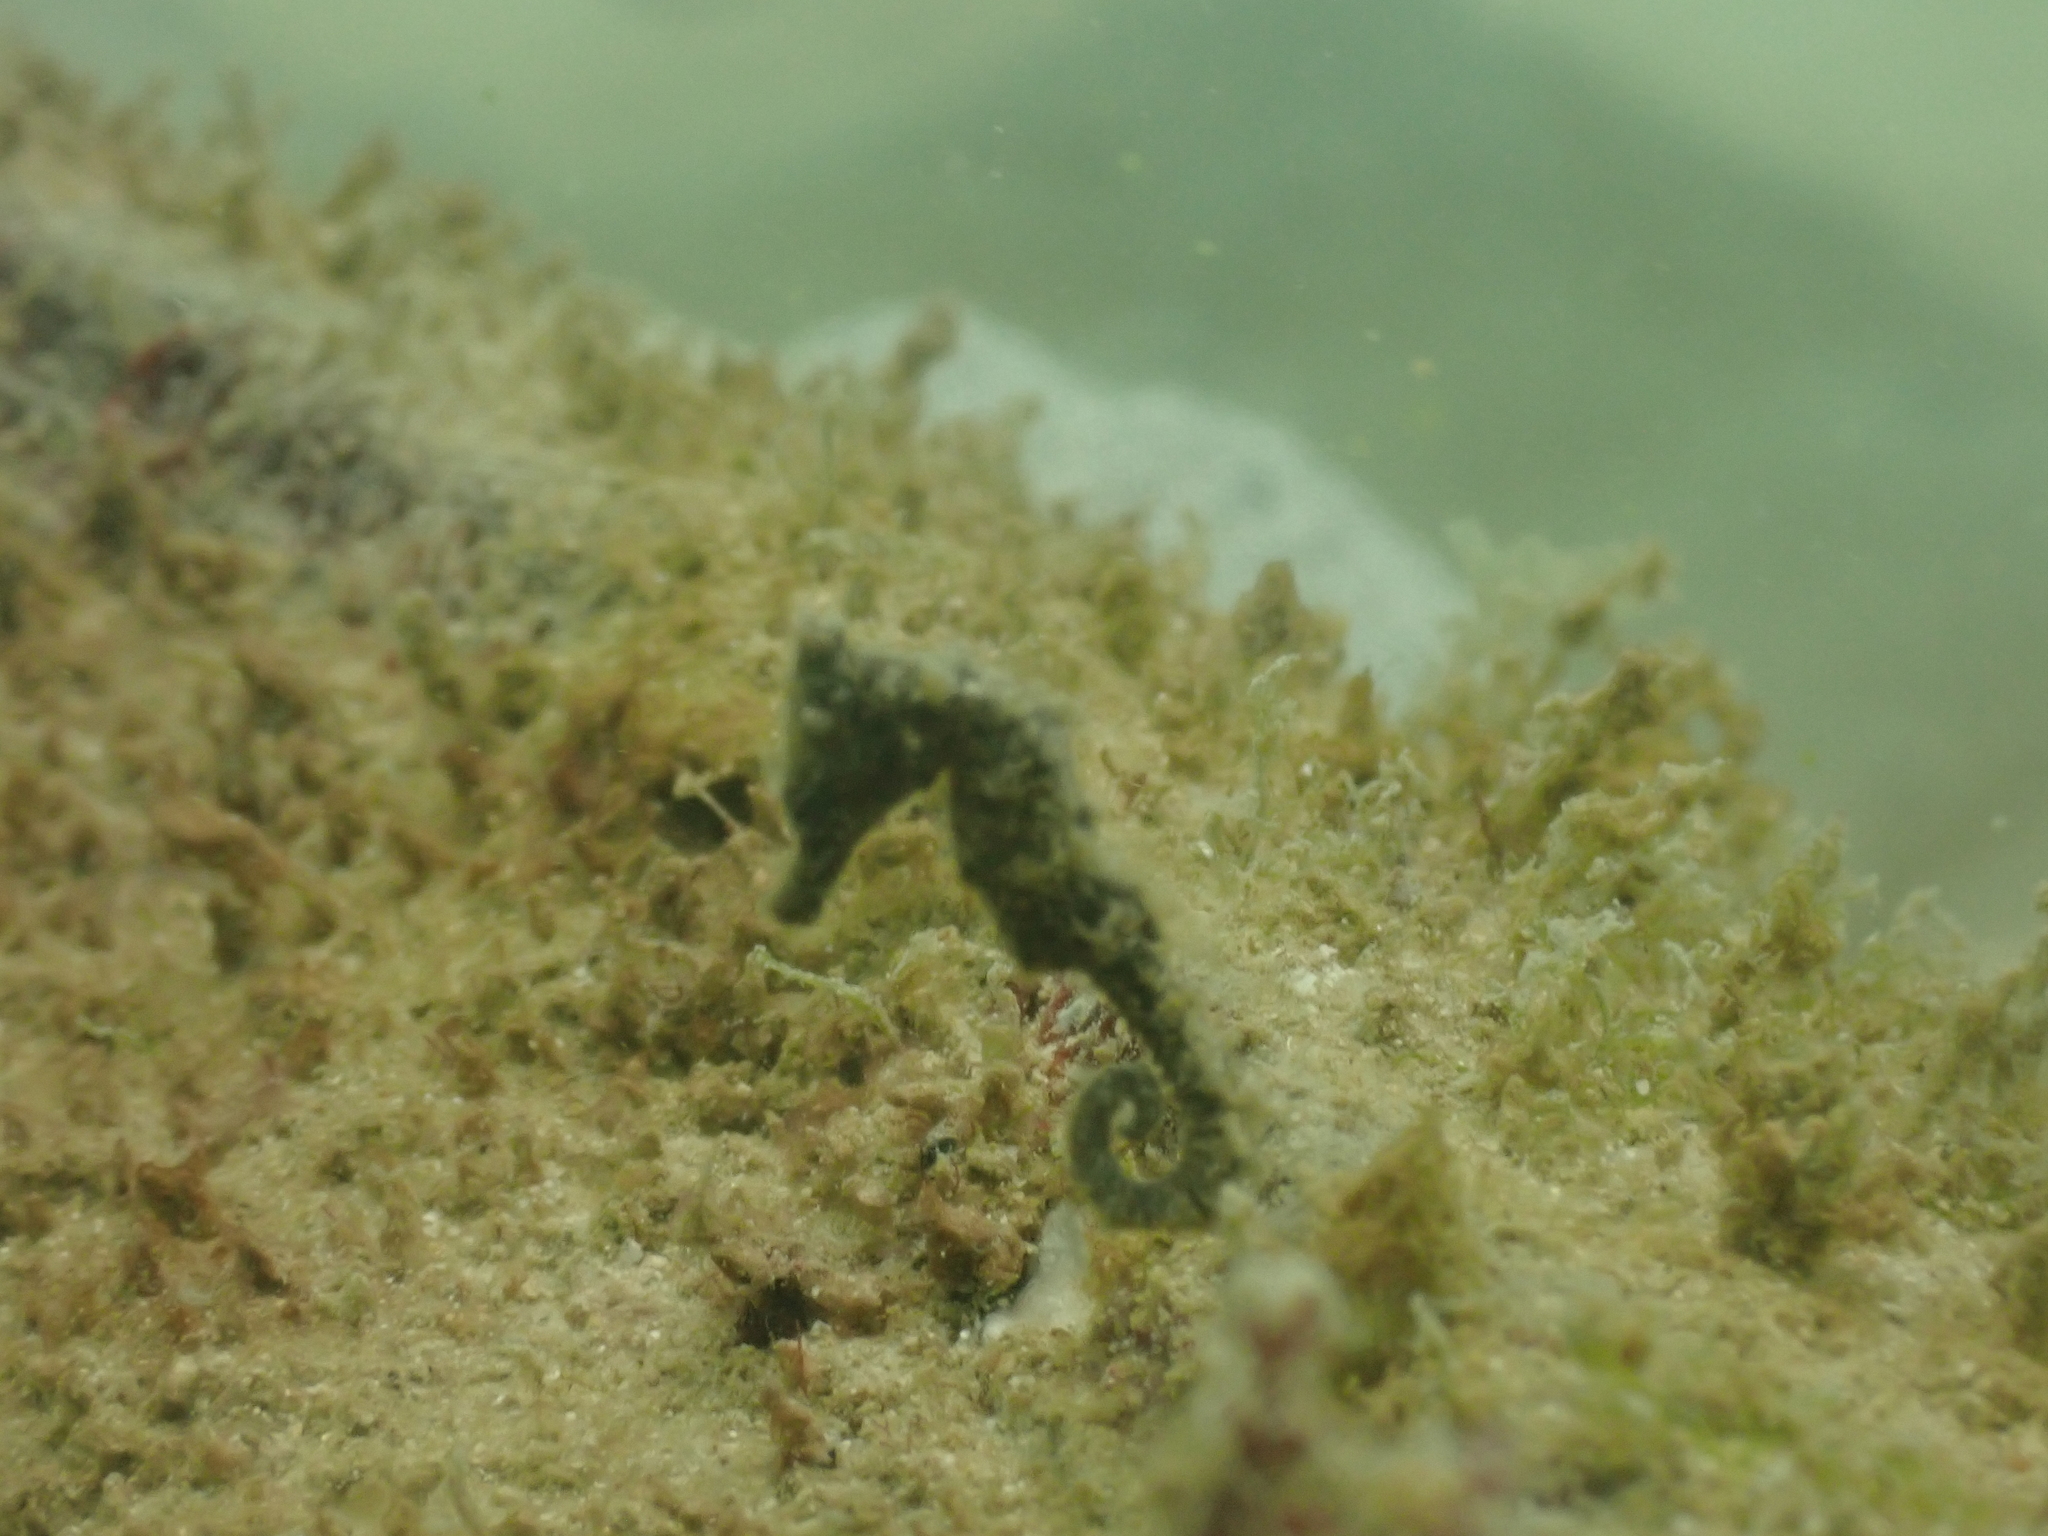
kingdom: Animalia
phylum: Chordata
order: Syngnathiformes
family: Syngnathidae
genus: Hippocampus
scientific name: Hippocampus kuda
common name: Spotted seahorse
